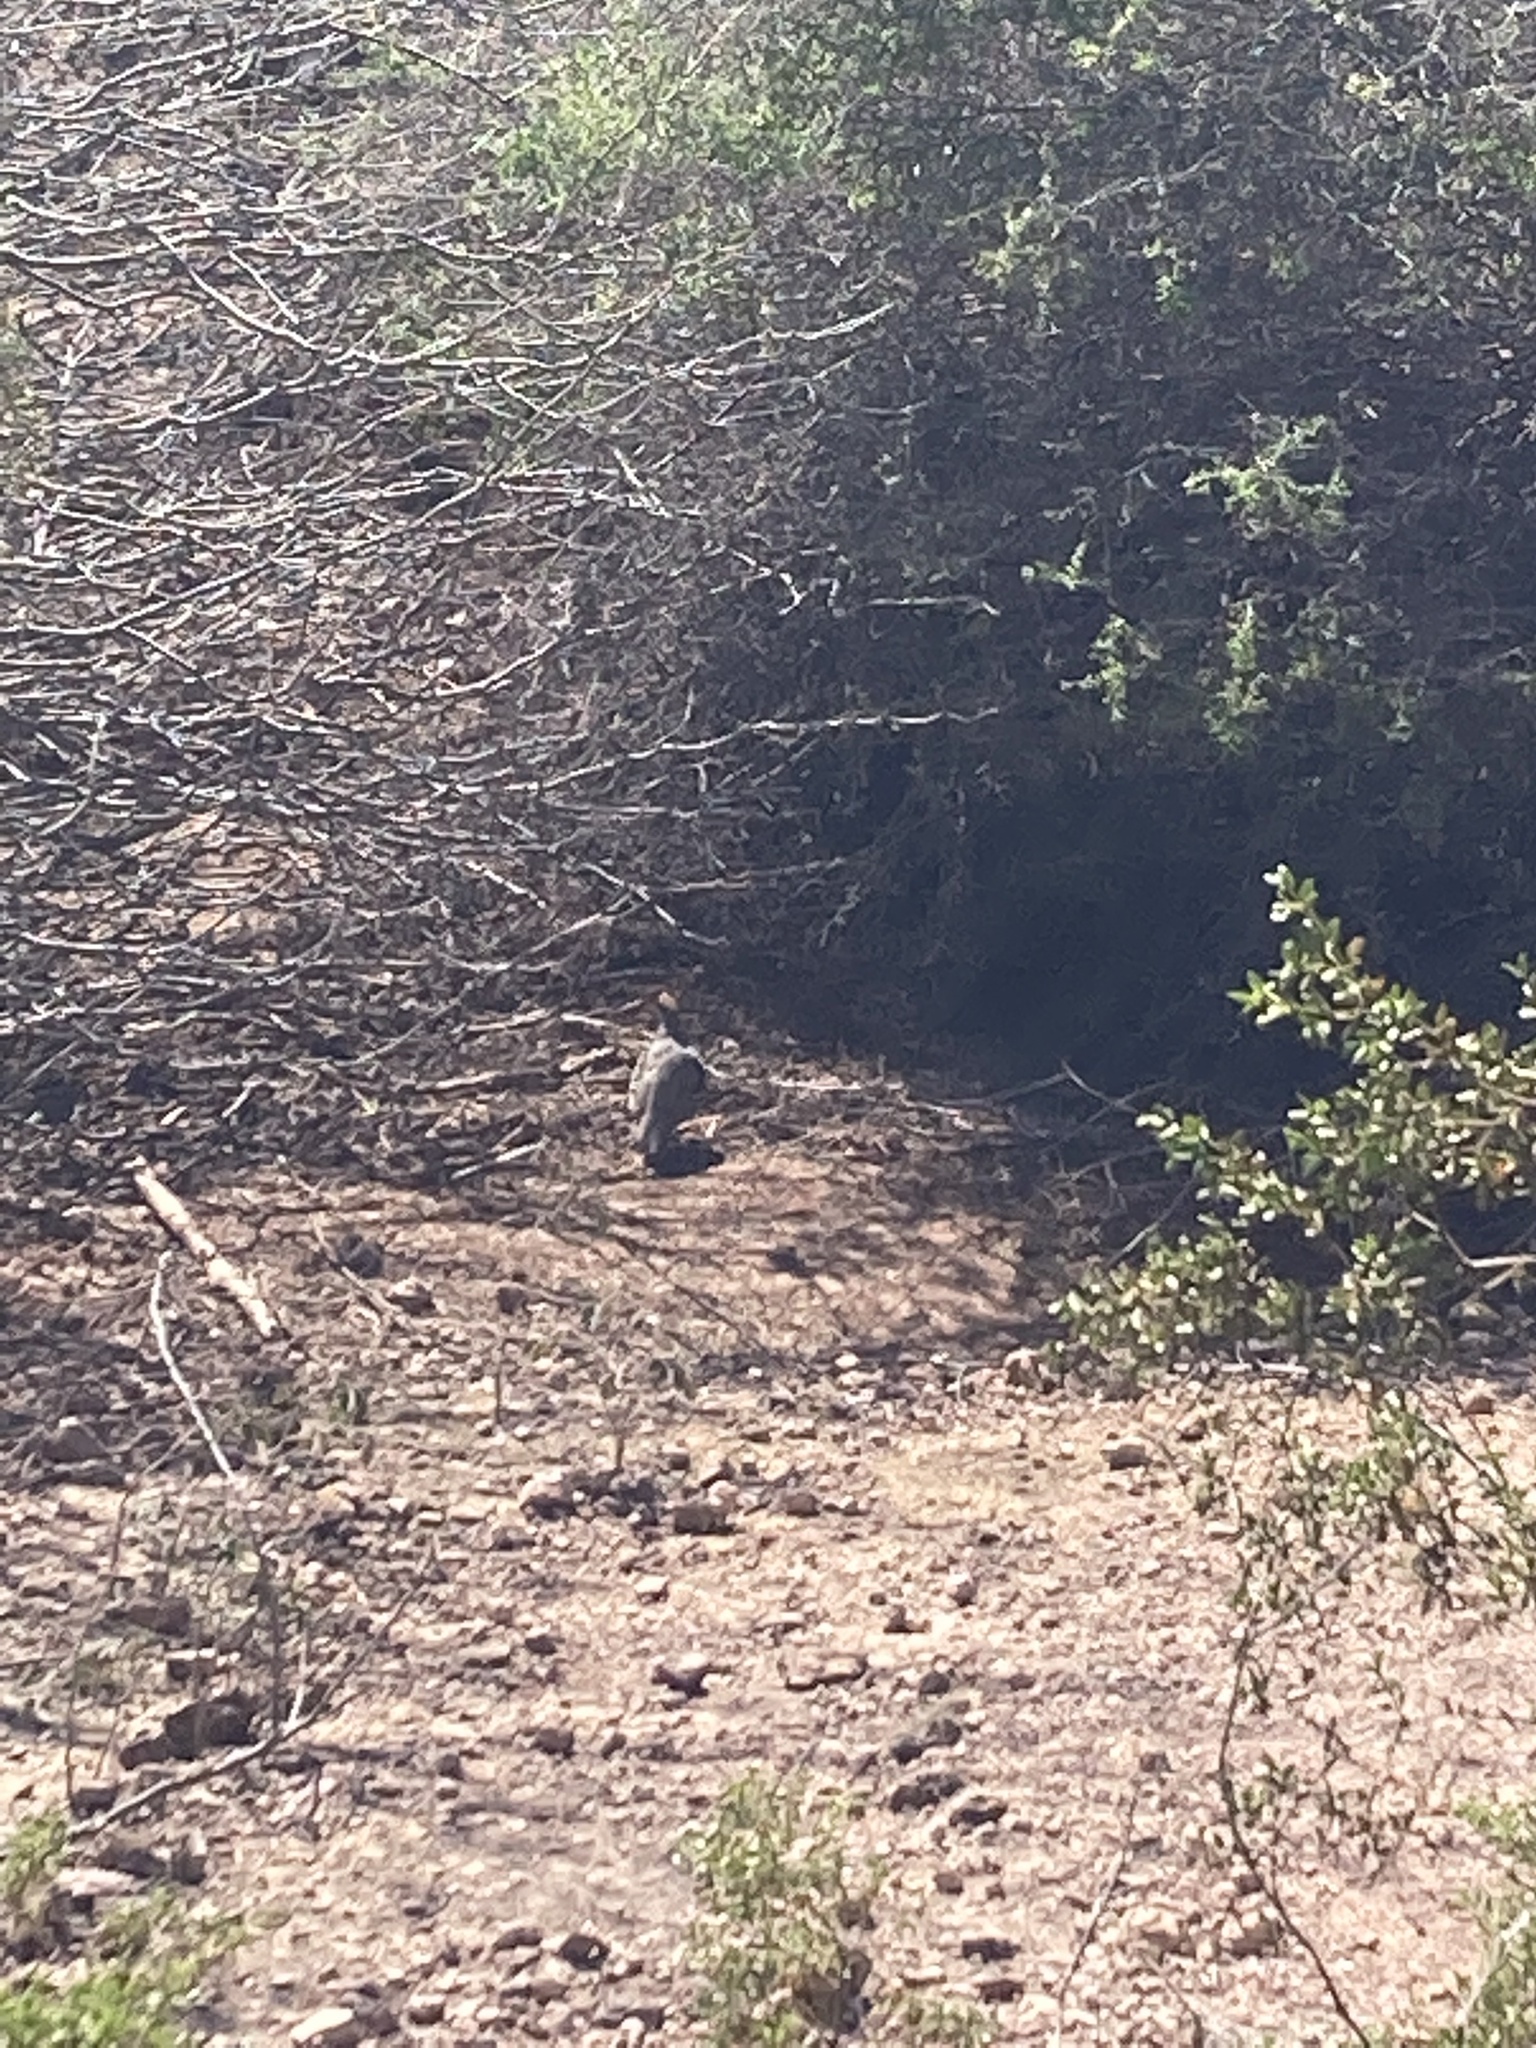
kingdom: Animalia
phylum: Chordata
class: Aves
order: Galliformes
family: Odontophoridae
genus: Callipepla
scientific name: Callipepla gambelii
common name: Gambel's quail
